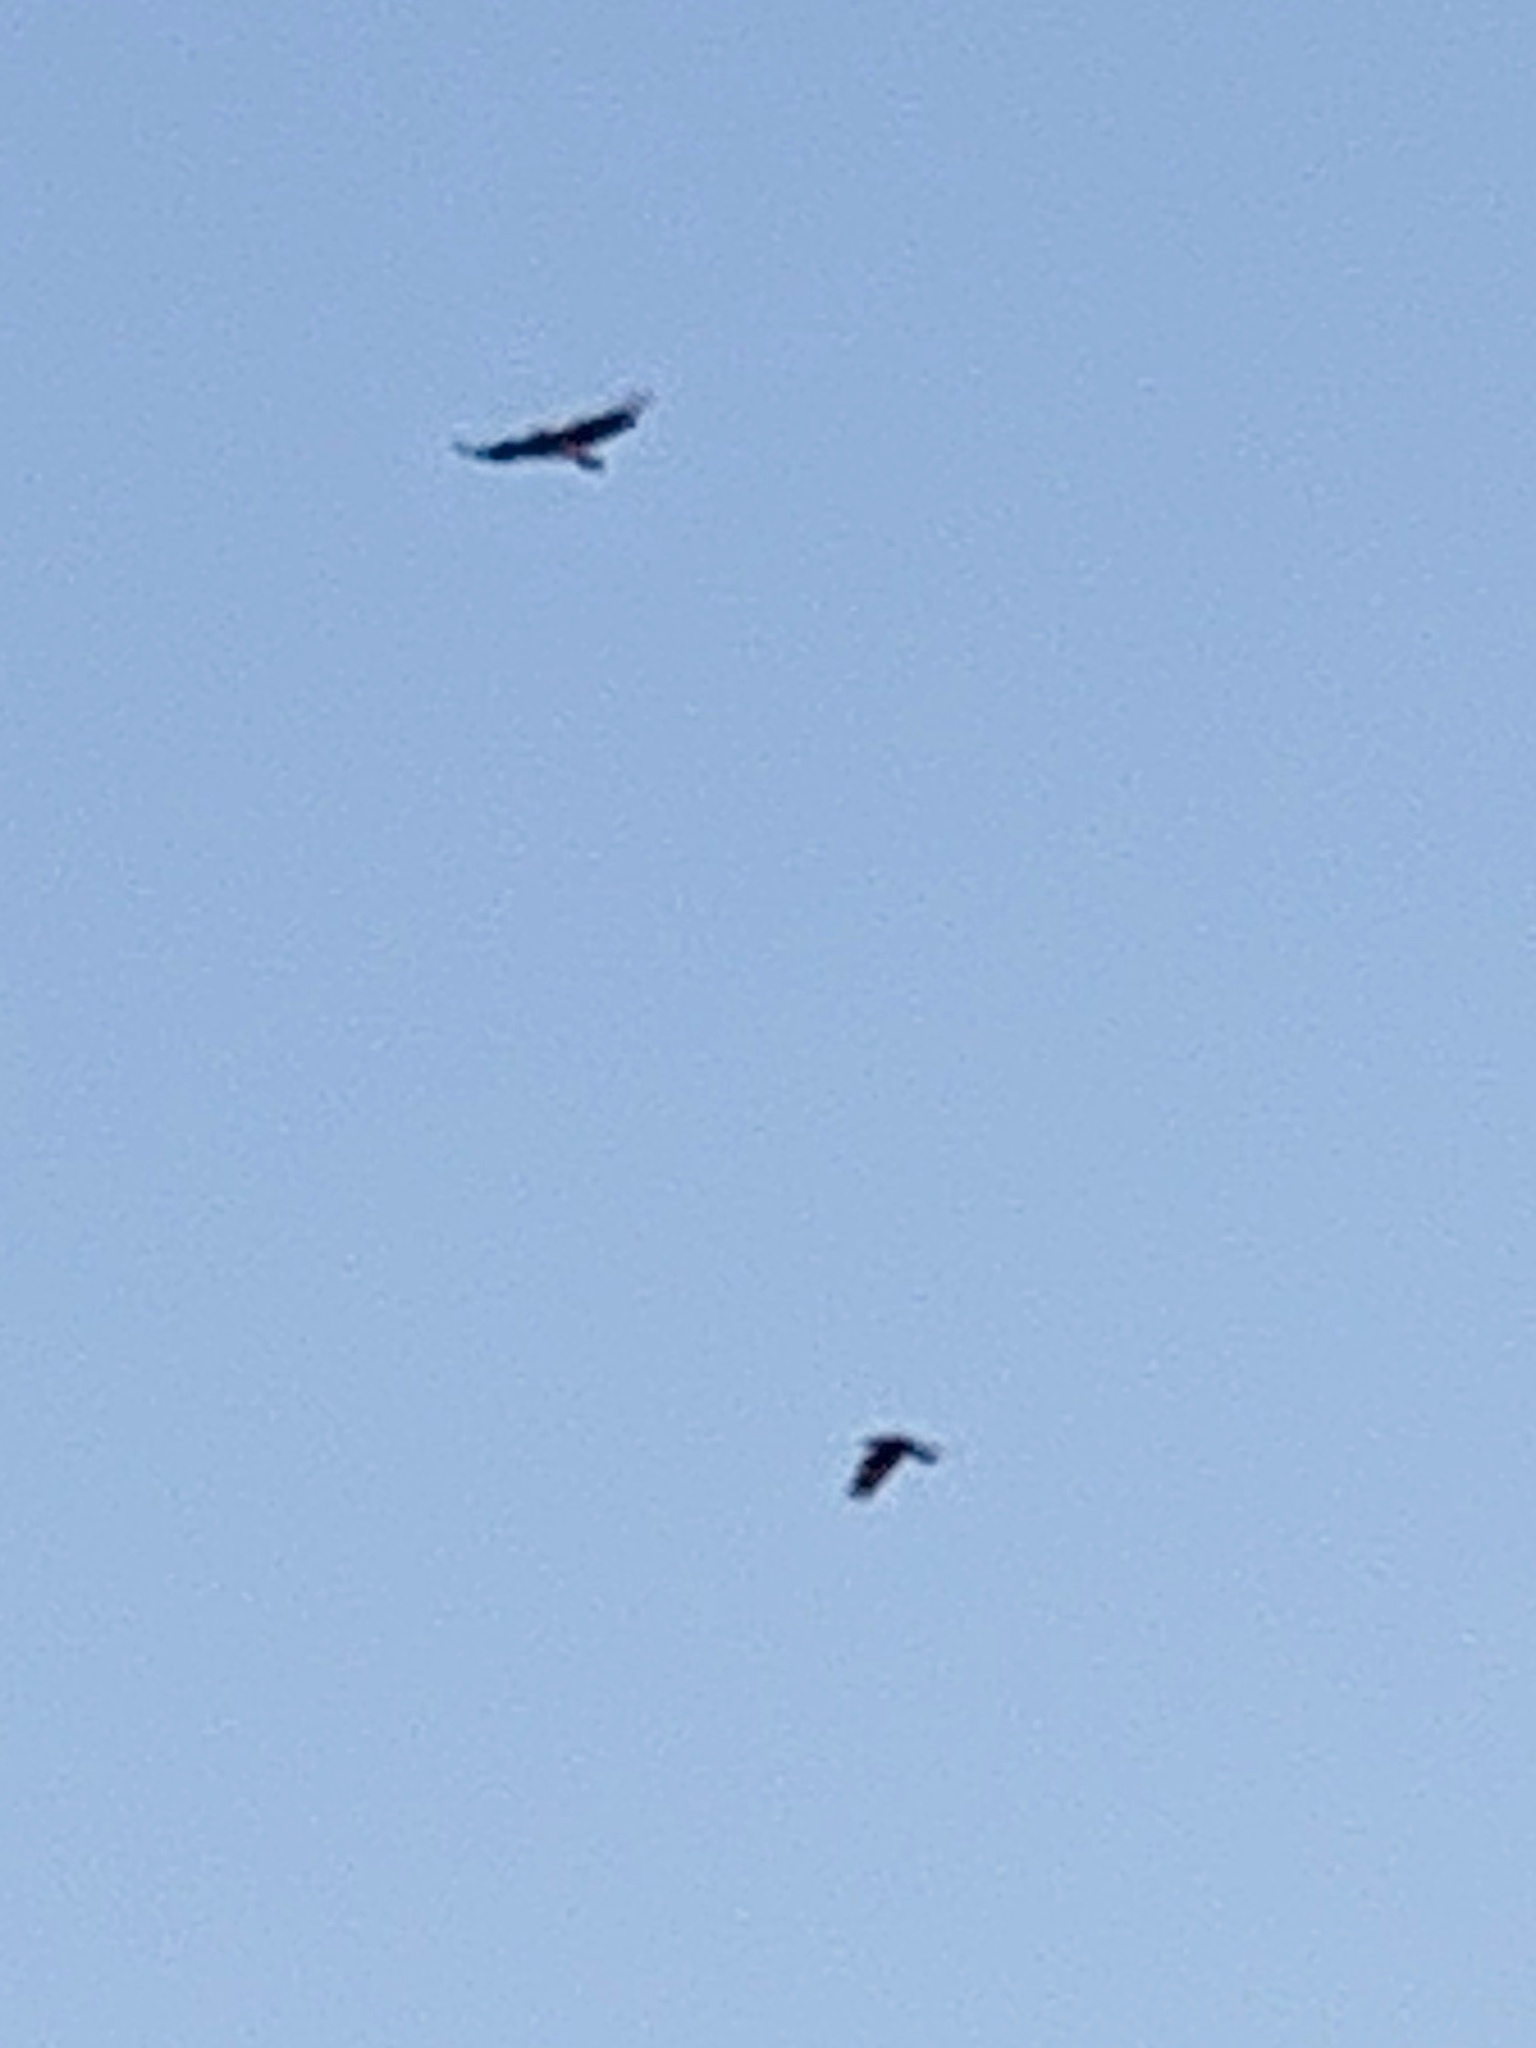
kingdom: Animalia
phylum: Chordata
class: Aves
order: Accipitriformes
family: Accipitridae
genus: Haliaeetus
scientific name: Haliaeetus leucocephalus
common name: Bald eagle
